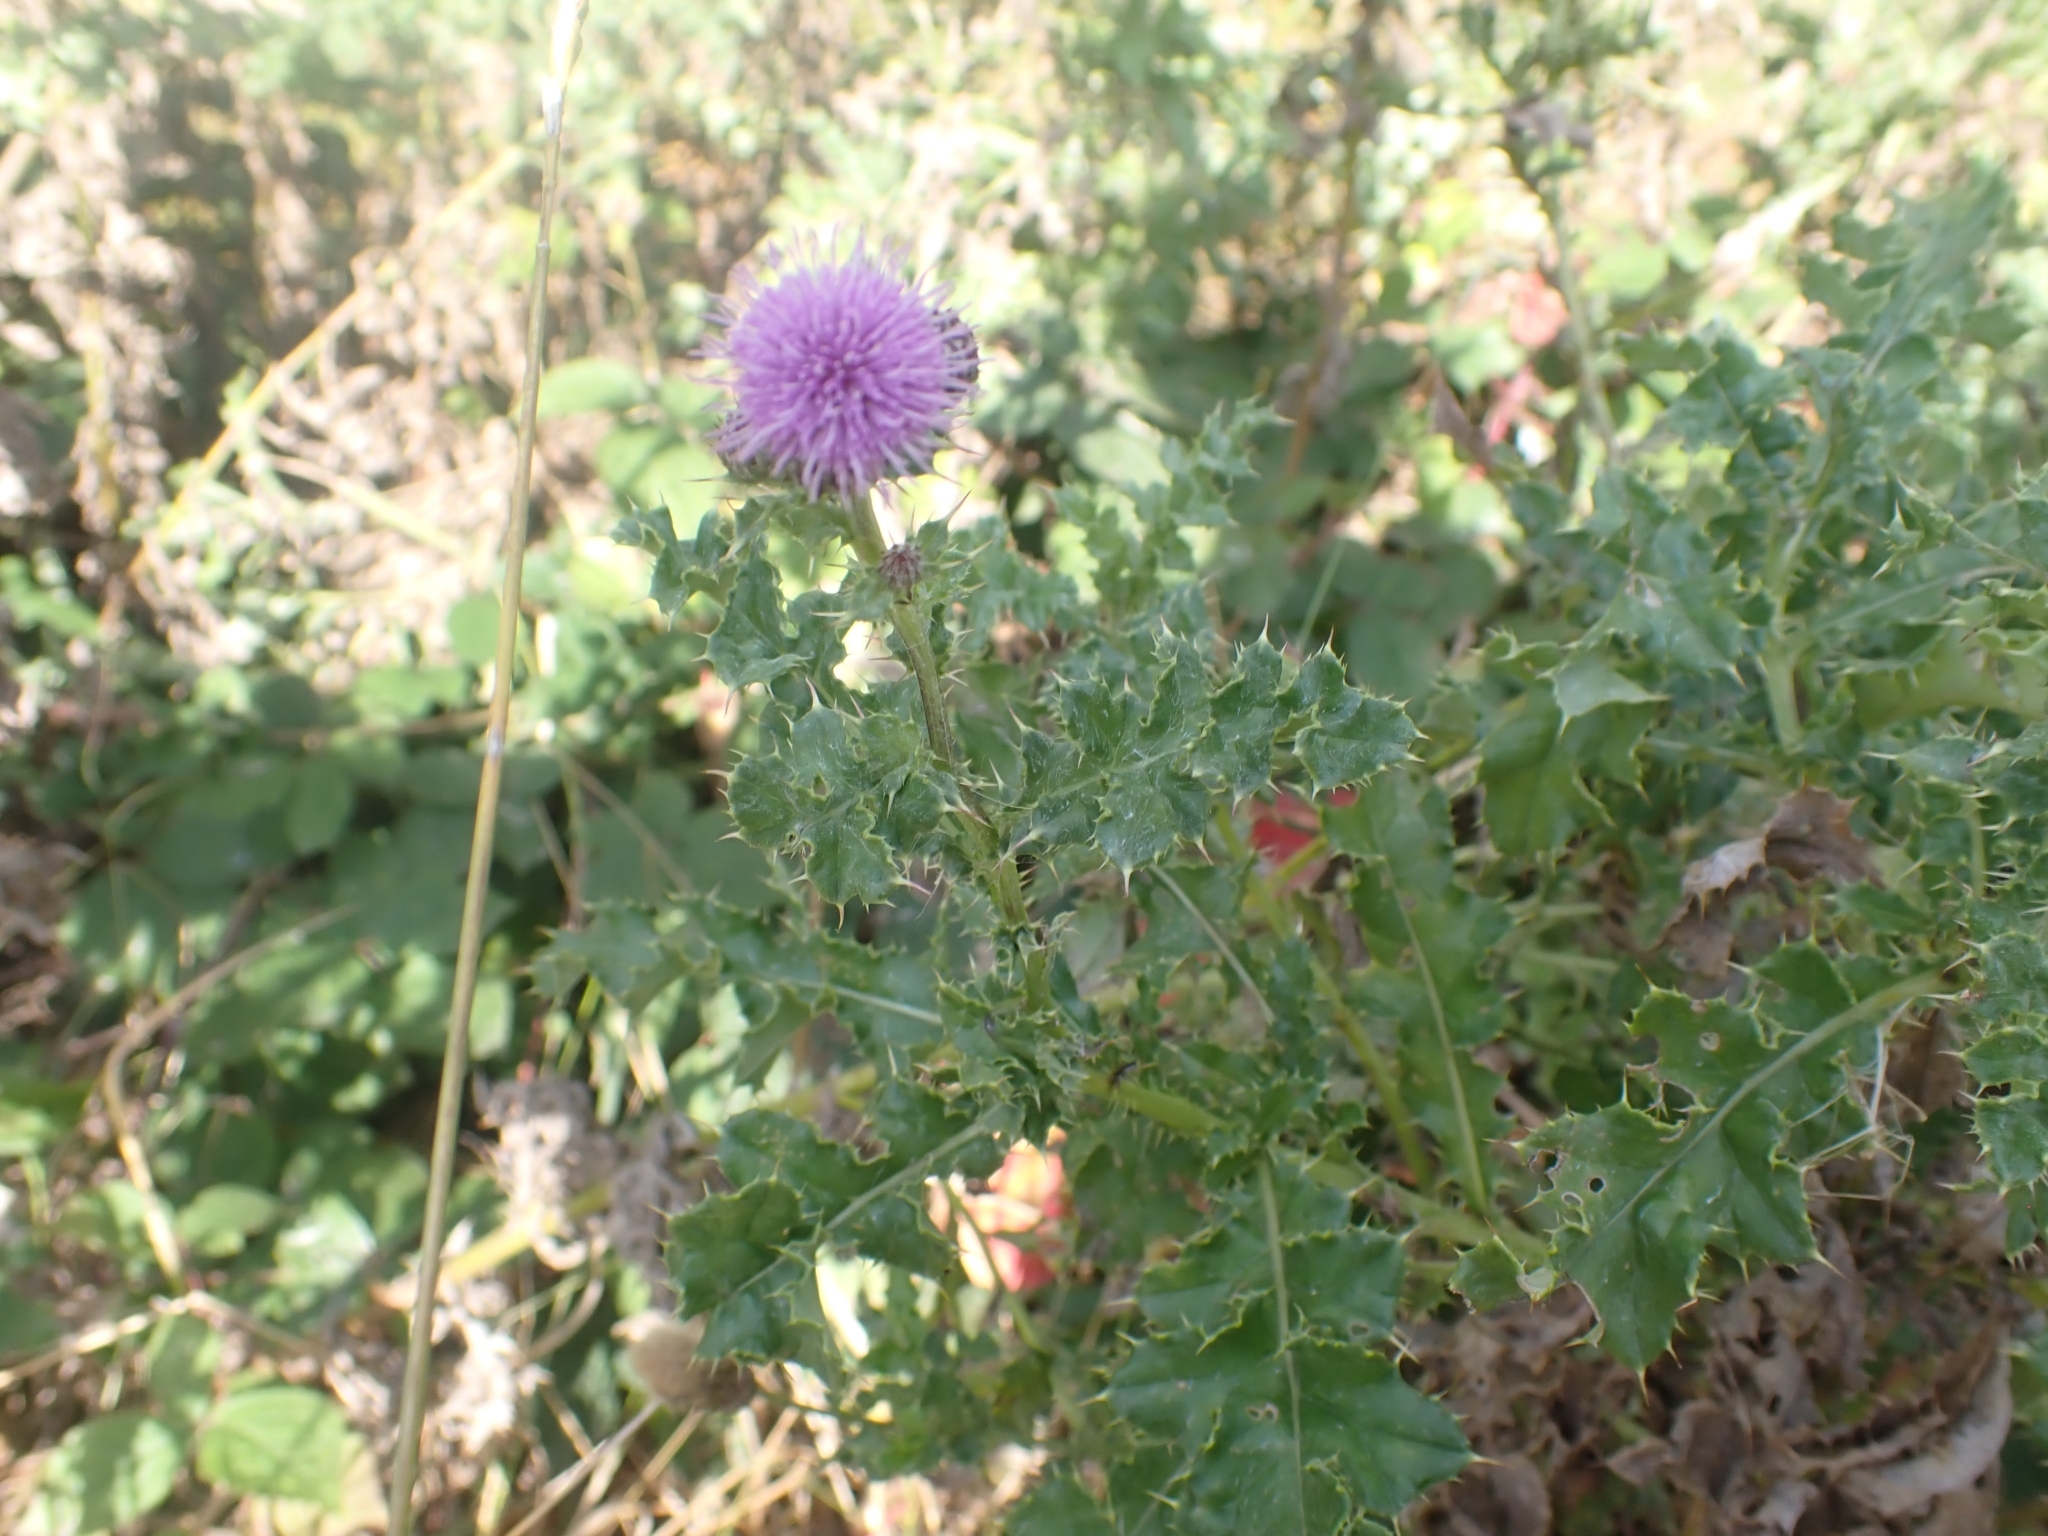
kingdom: Plantae
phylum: Tracheophyta
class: Magnoliopsida
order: Asterales
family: Asteraceae
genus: Cirsium
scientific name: Cirsium arvense
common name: Creeping thistle
